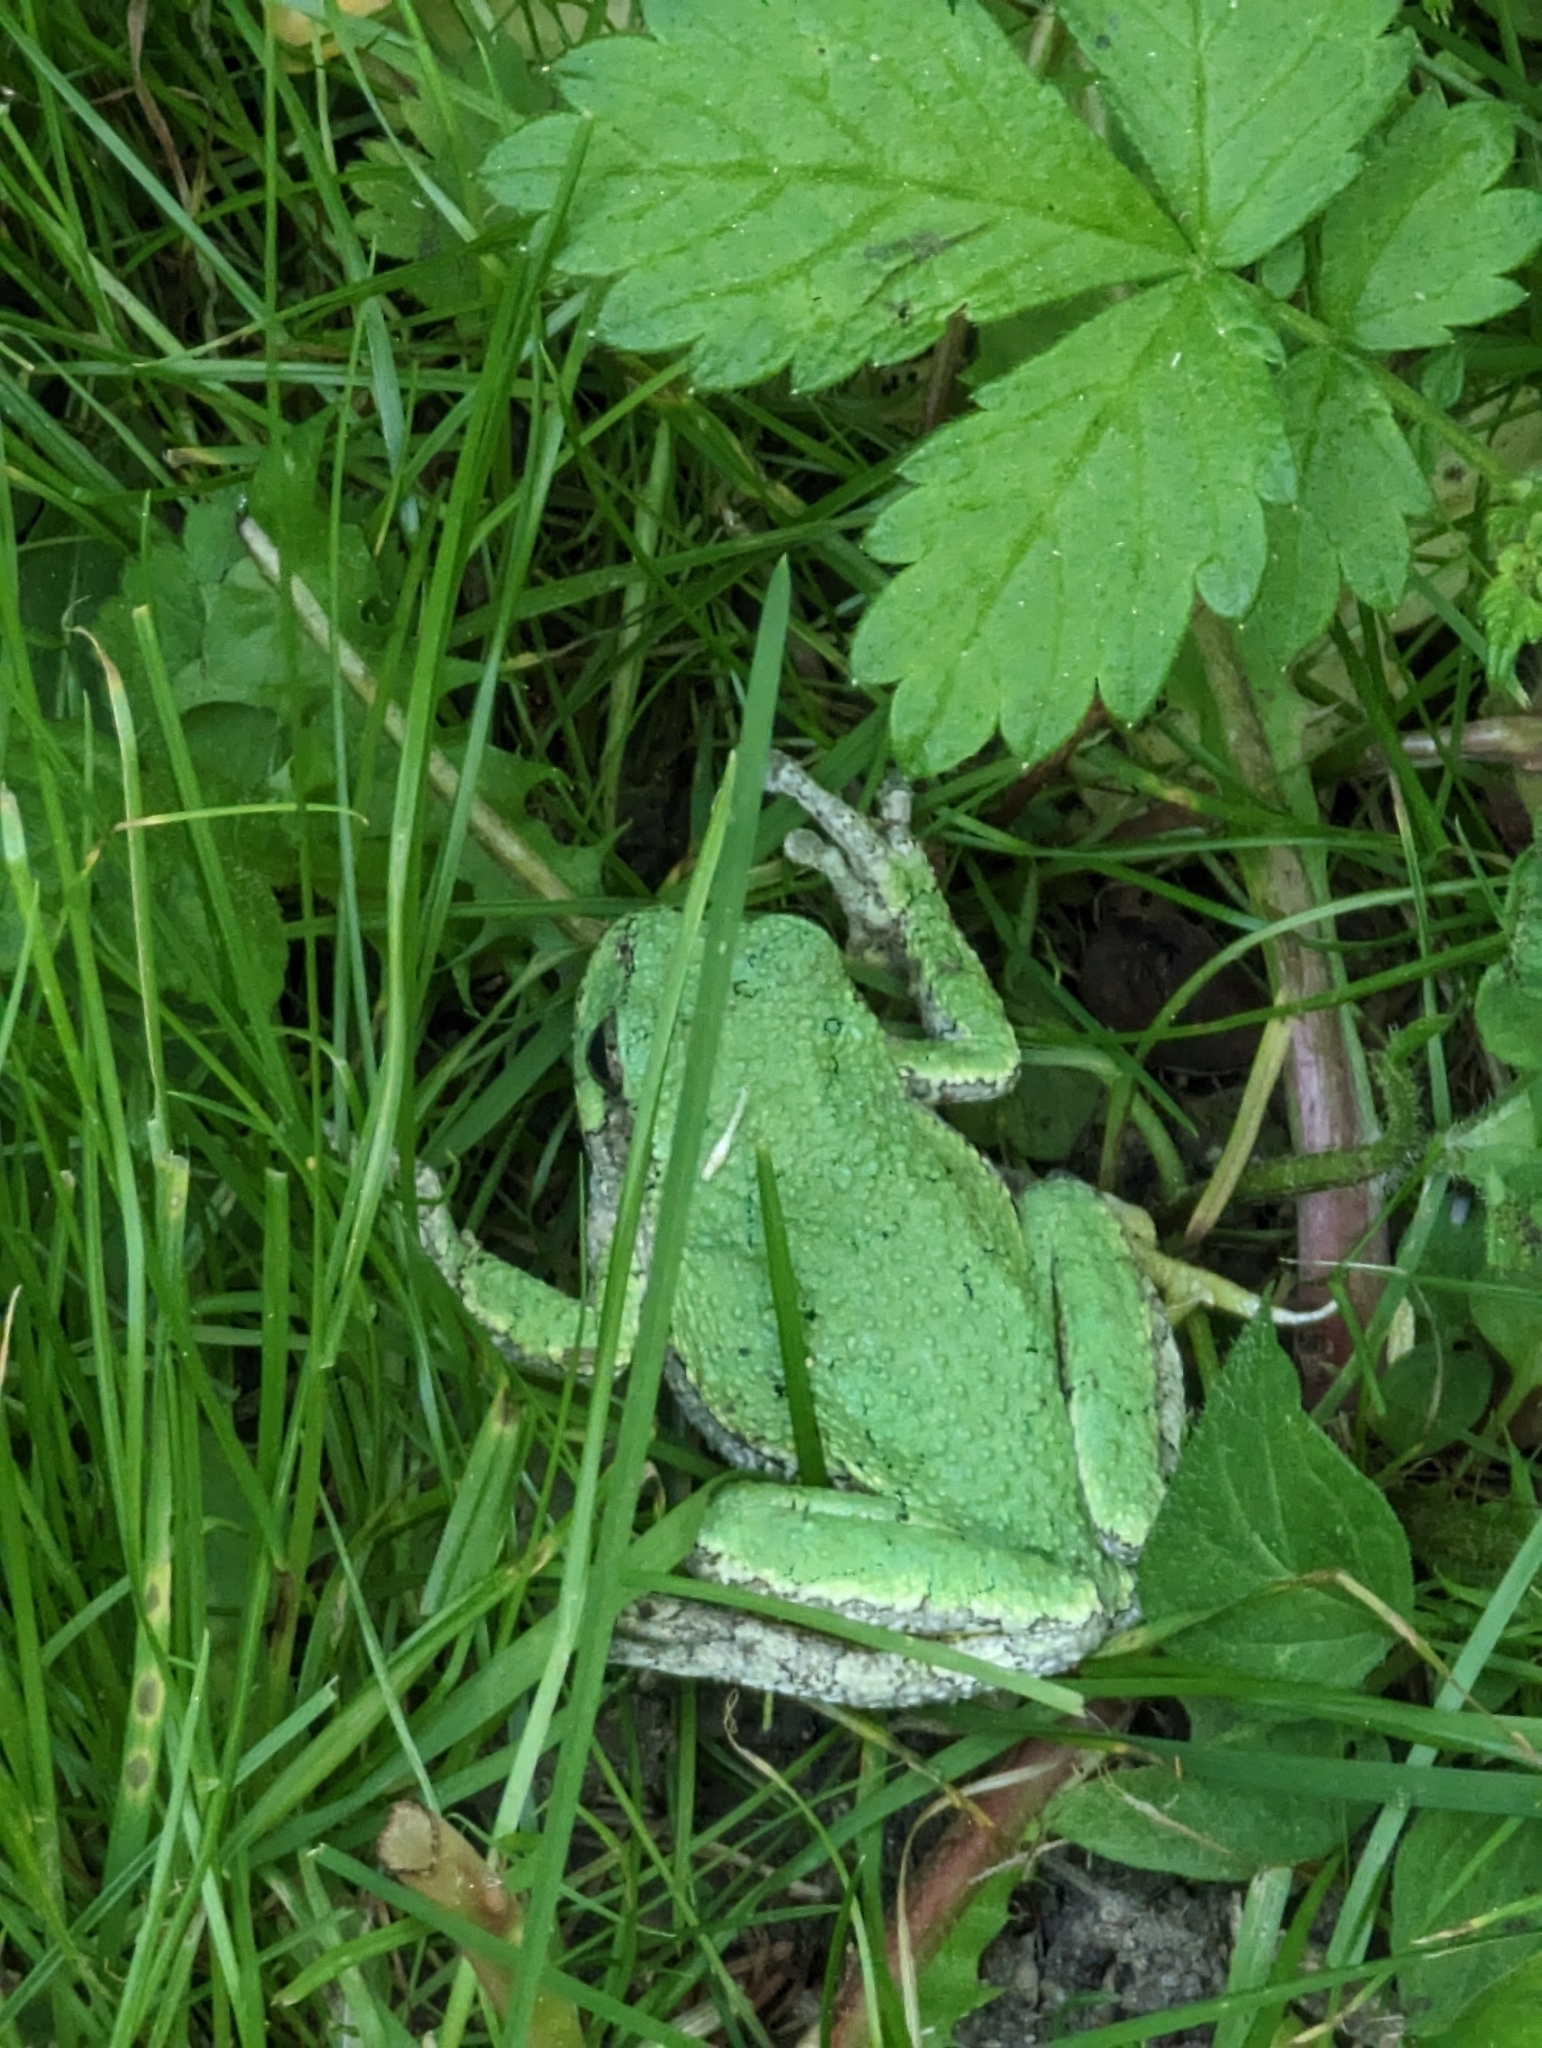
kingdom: Animalia
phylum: Chordata
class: Amphibia
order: Anura
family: Hylidae
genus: Dryophytes
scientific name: Dryophytes versicolor
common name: Gray treefrog
